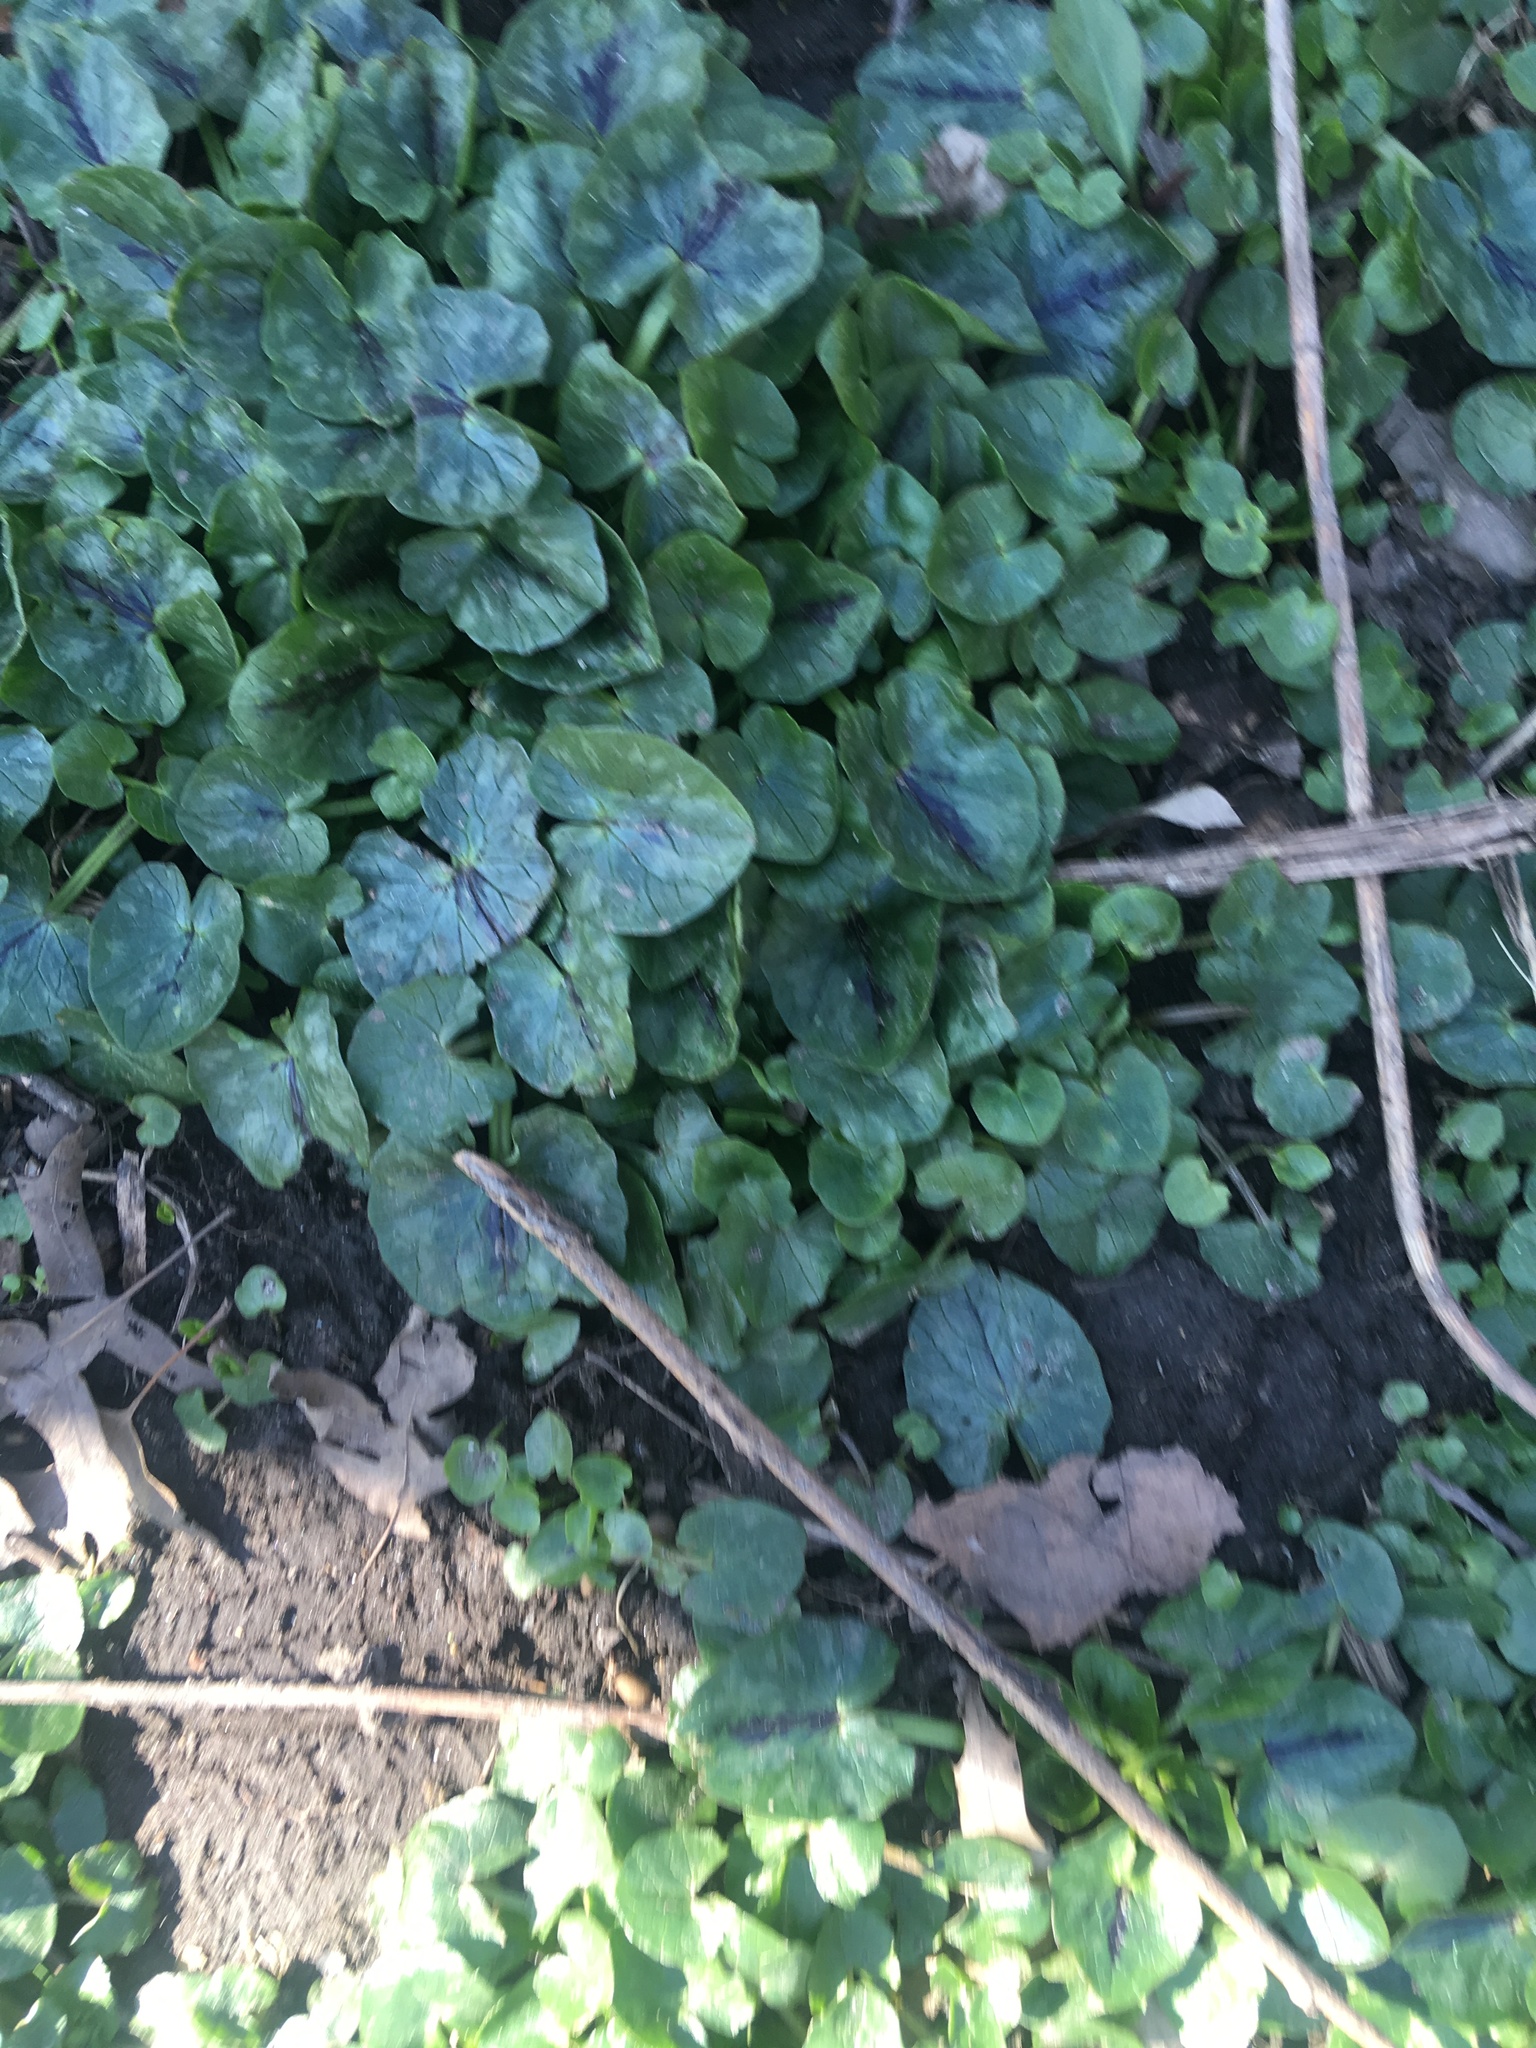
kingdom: Plantae
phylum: Tracheophyta
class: Magnoliopsida
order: Ranunculales
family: Ranunculaceae
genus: Ficaria
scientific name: Ficaria verna
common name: Lesser celandine
